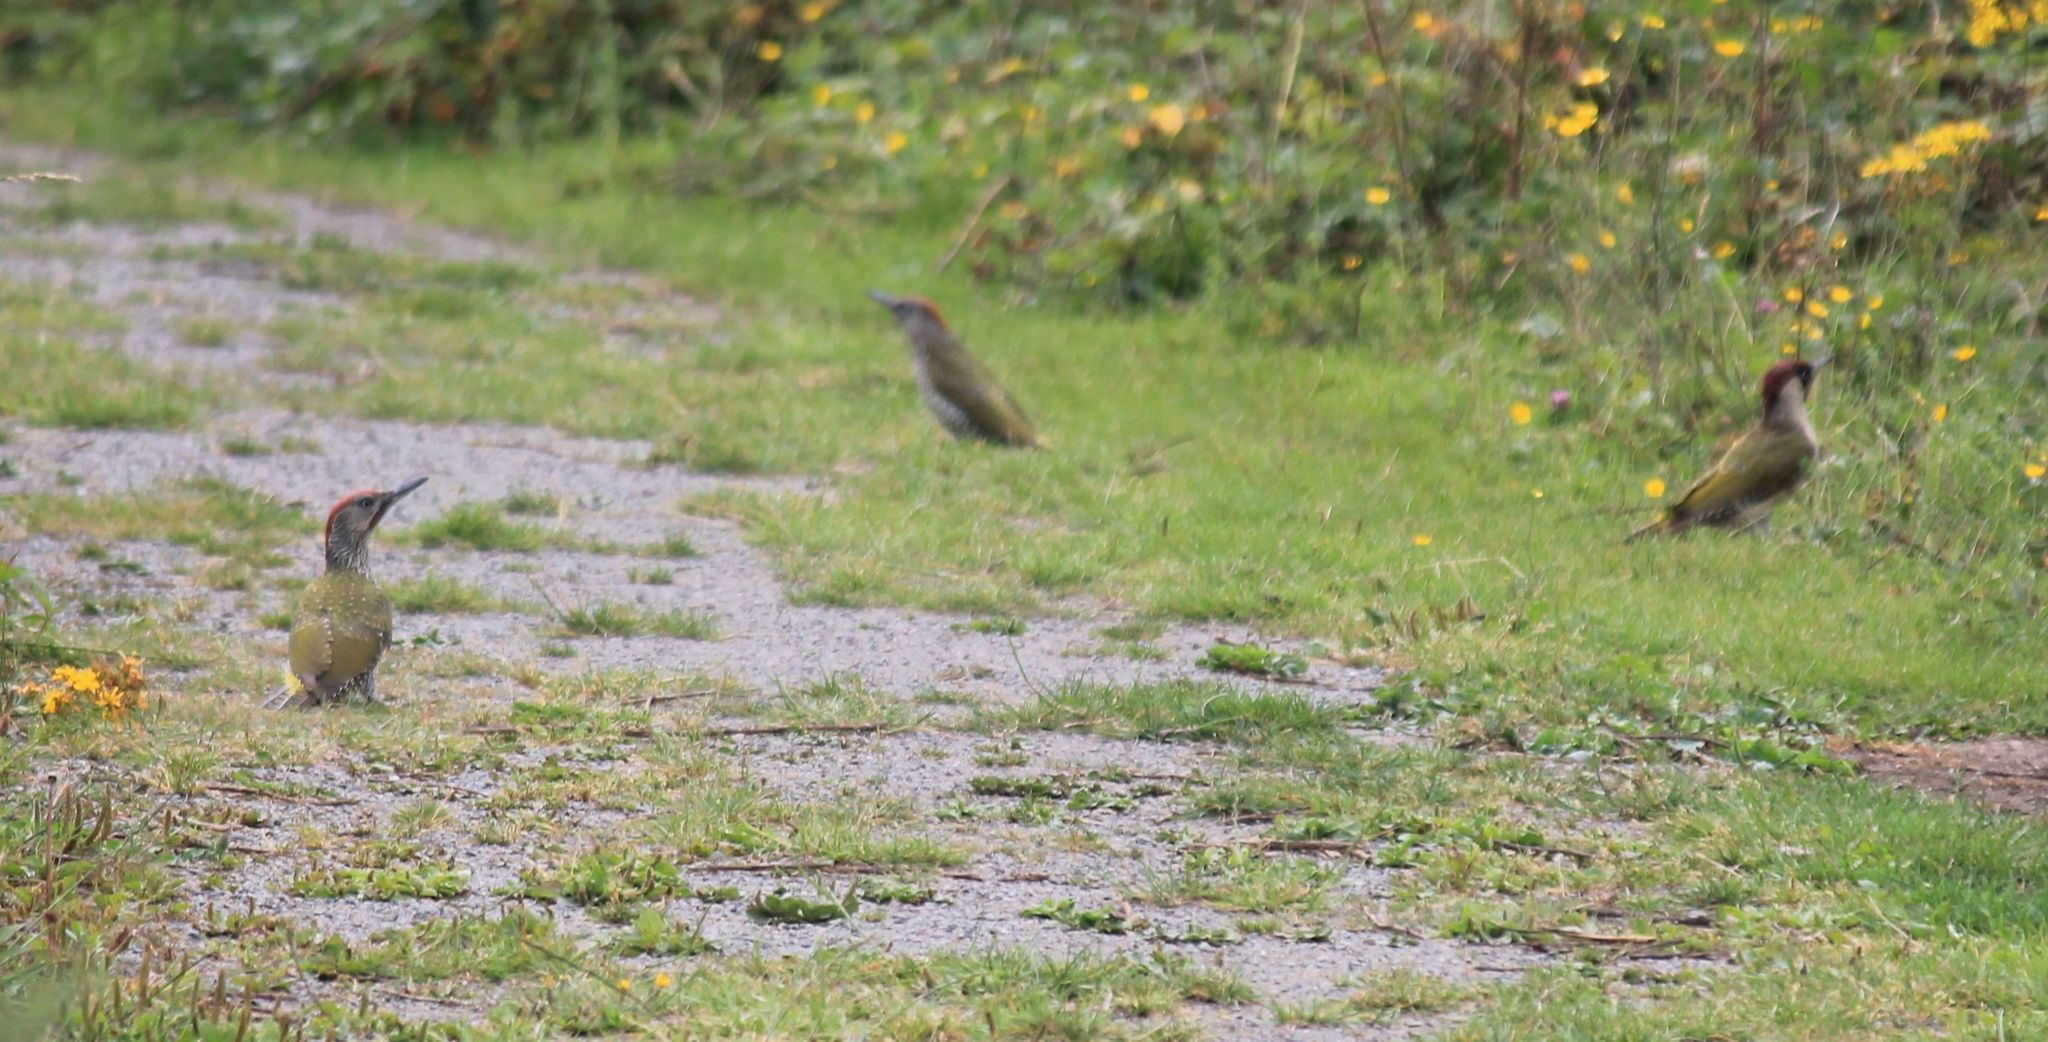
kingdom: Animalia
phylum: Chordata
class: Aves
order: Piciformes
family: Picidae
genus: Picus
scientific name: Picus viridis
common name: European green woodpecker
